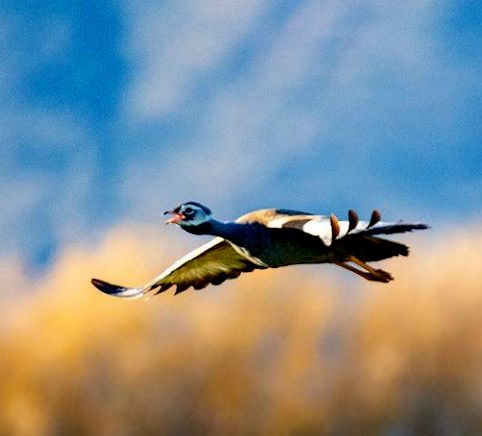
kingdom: Animalia
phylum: Chordata
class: Aves
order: Otidiformes
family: Otididae
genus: Eupodotis
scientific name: Eupodotis caerulescens
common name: Blue korhaan
